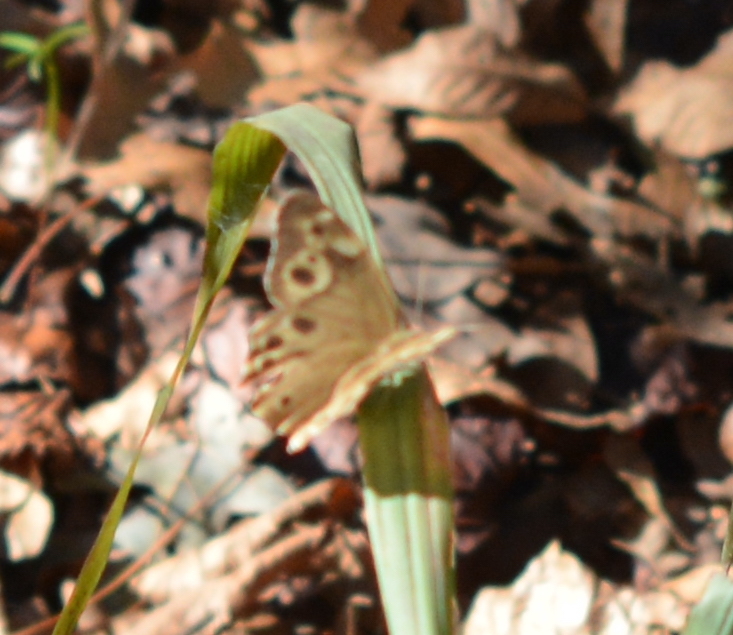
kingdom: Animalia
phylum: Arthropoda
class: Insecta
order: Lepidoptera
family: Nymphalidae
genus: Enodia
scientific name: Enodia portlandia
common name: Southern pearly-eye
